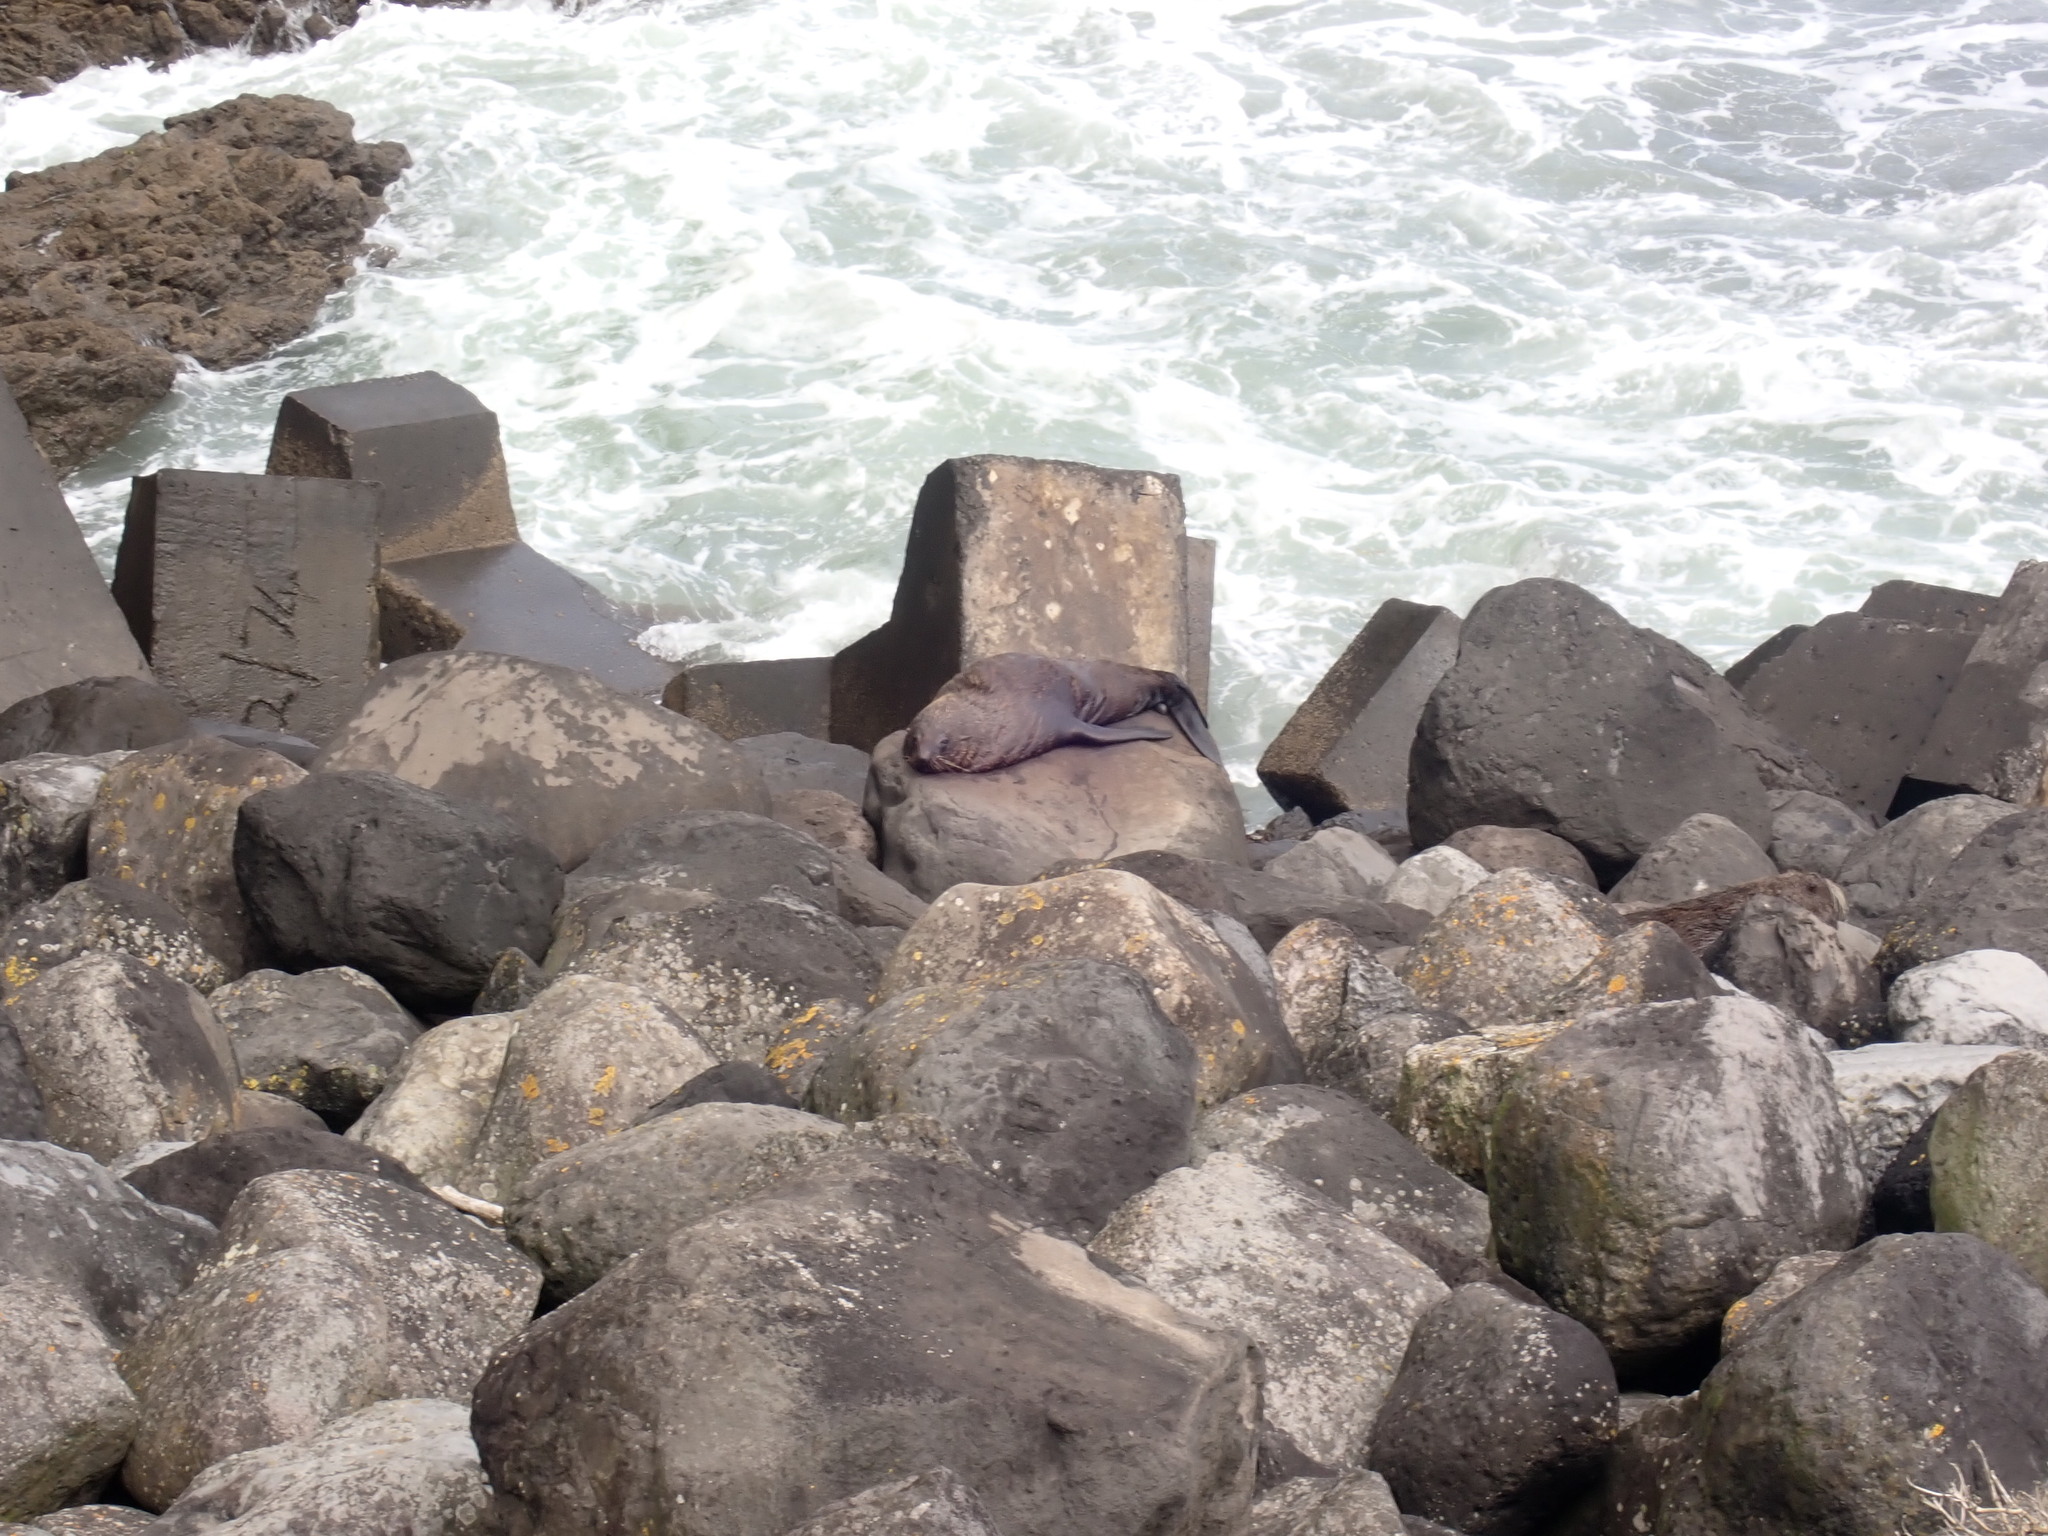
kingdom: Animalia
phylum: Chordata
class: Mammalia
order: Carnivora
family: Otariidae
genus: Arctocephalus
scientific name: Arctocephalus forsteri
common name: New zealand fur seal
